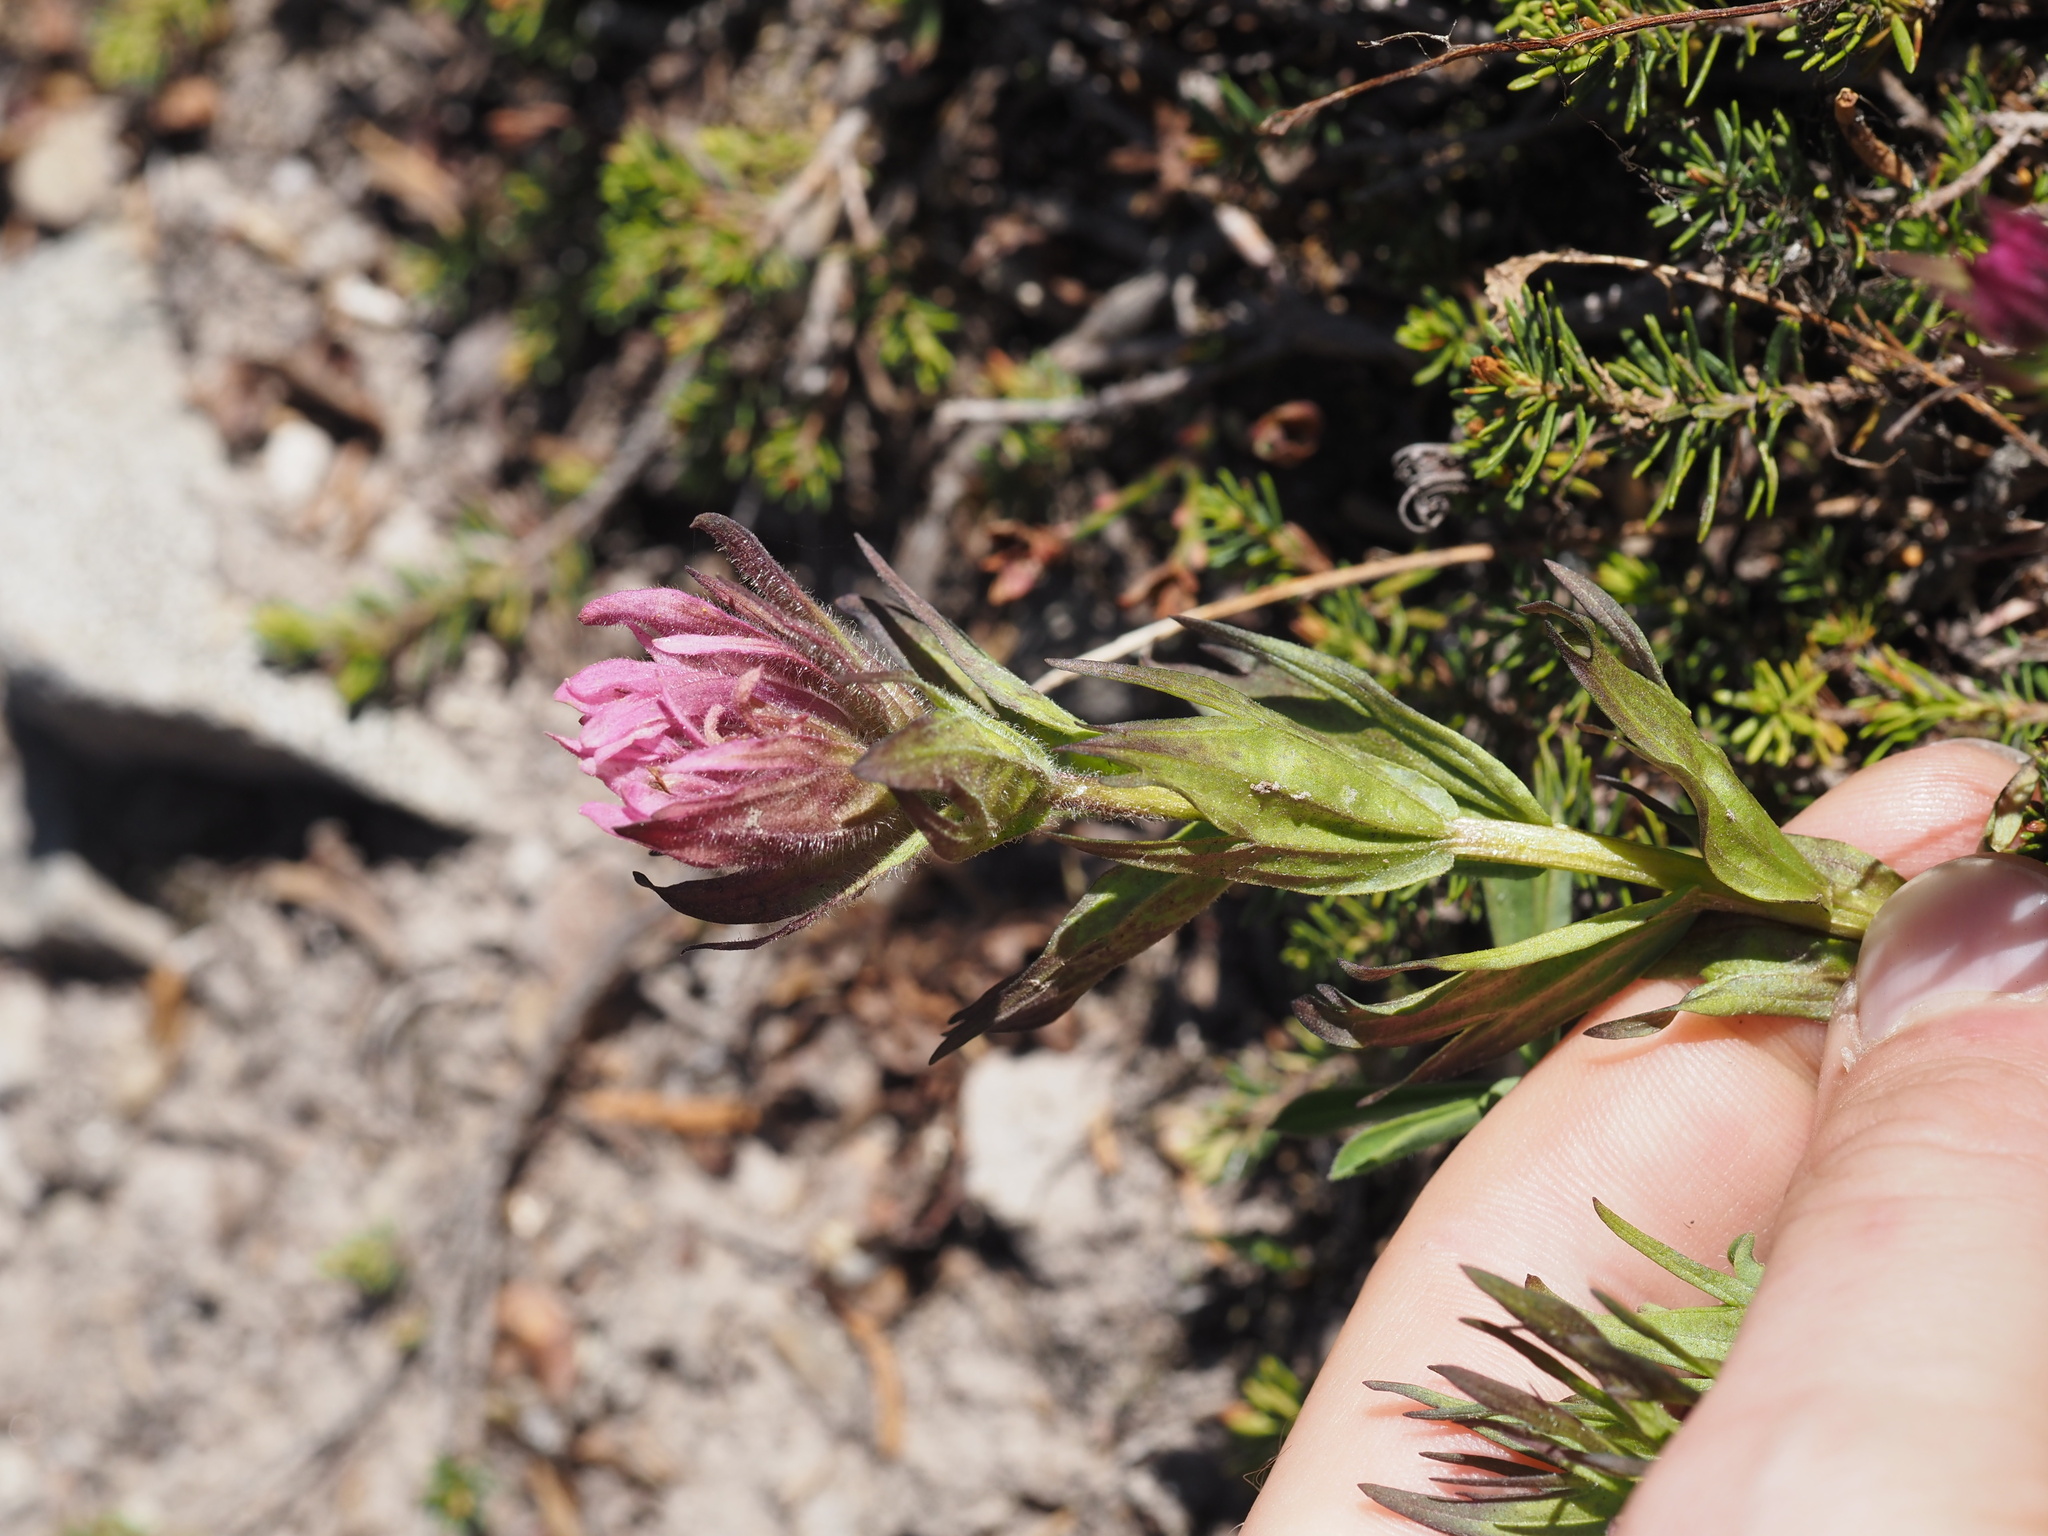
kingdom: Plantae
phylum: Tracheophyta
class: Magnoliopsida
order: Lamiales
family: Orobanchaceae
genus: Castilleja
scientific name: Castilleja parviflora
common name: Mountain paintbrush
